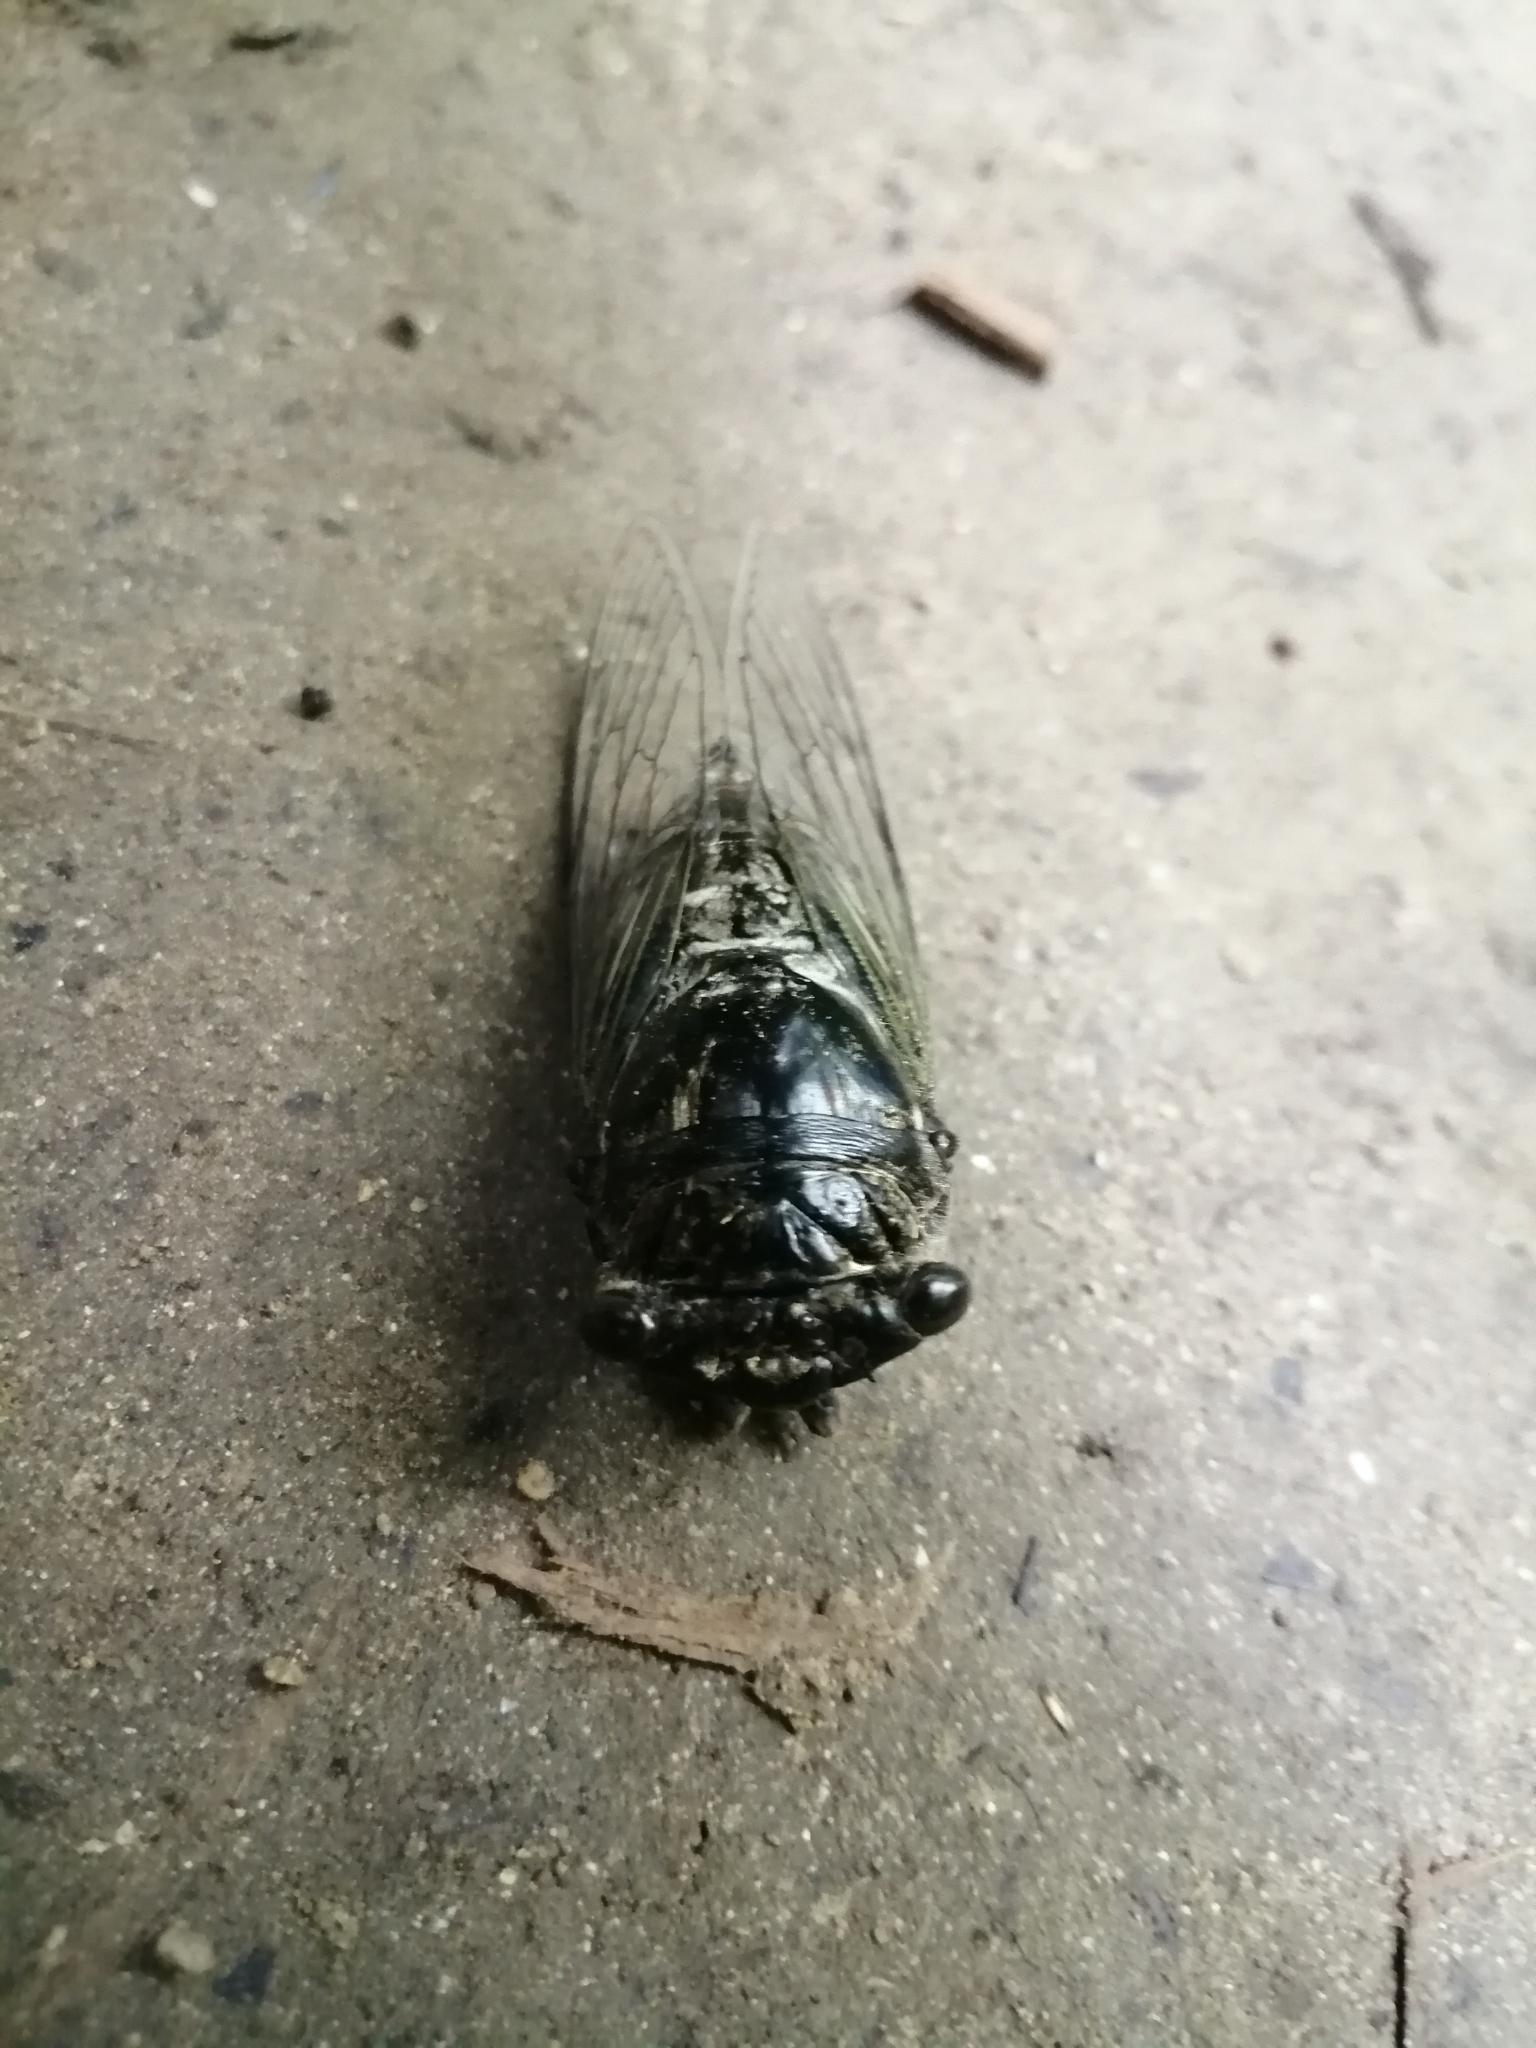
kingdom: Animalia
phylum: Arthropoda
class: Insecta
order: Hemiptera
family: Cicadidae
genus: Cryptotympana
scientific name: Cryptotympana takasagona
